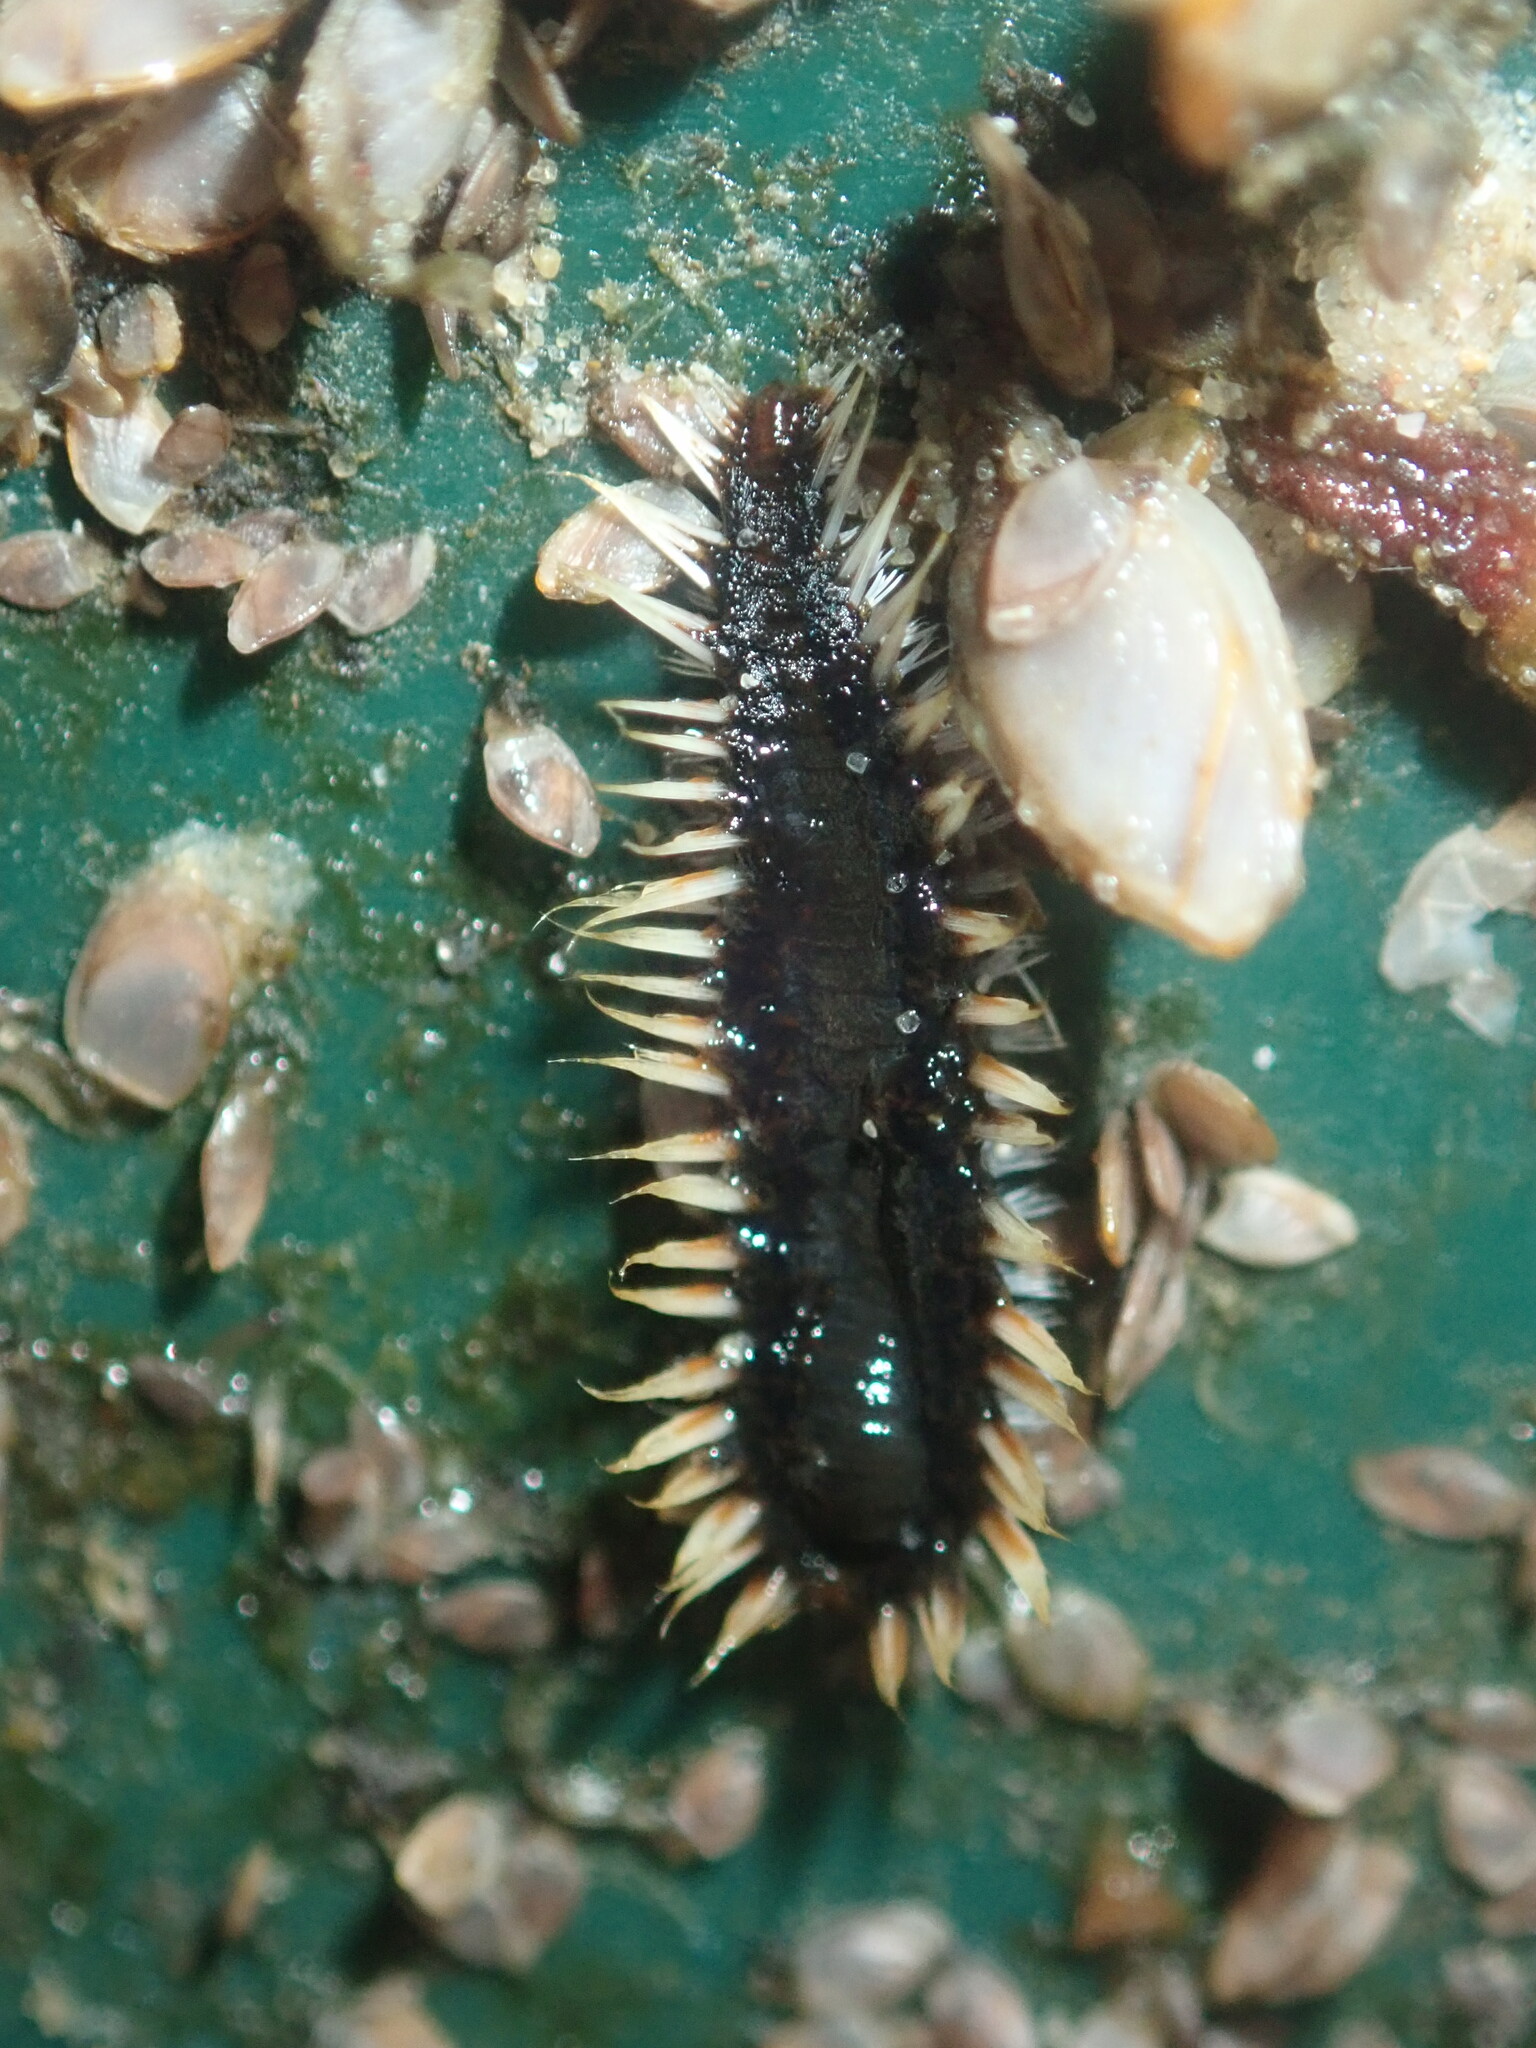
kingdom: Animalia
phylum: Annelida
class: Polychaeta
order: Amphinomida
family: Amphinomidae
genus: Amphinome
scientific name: Amphinome rostrata
